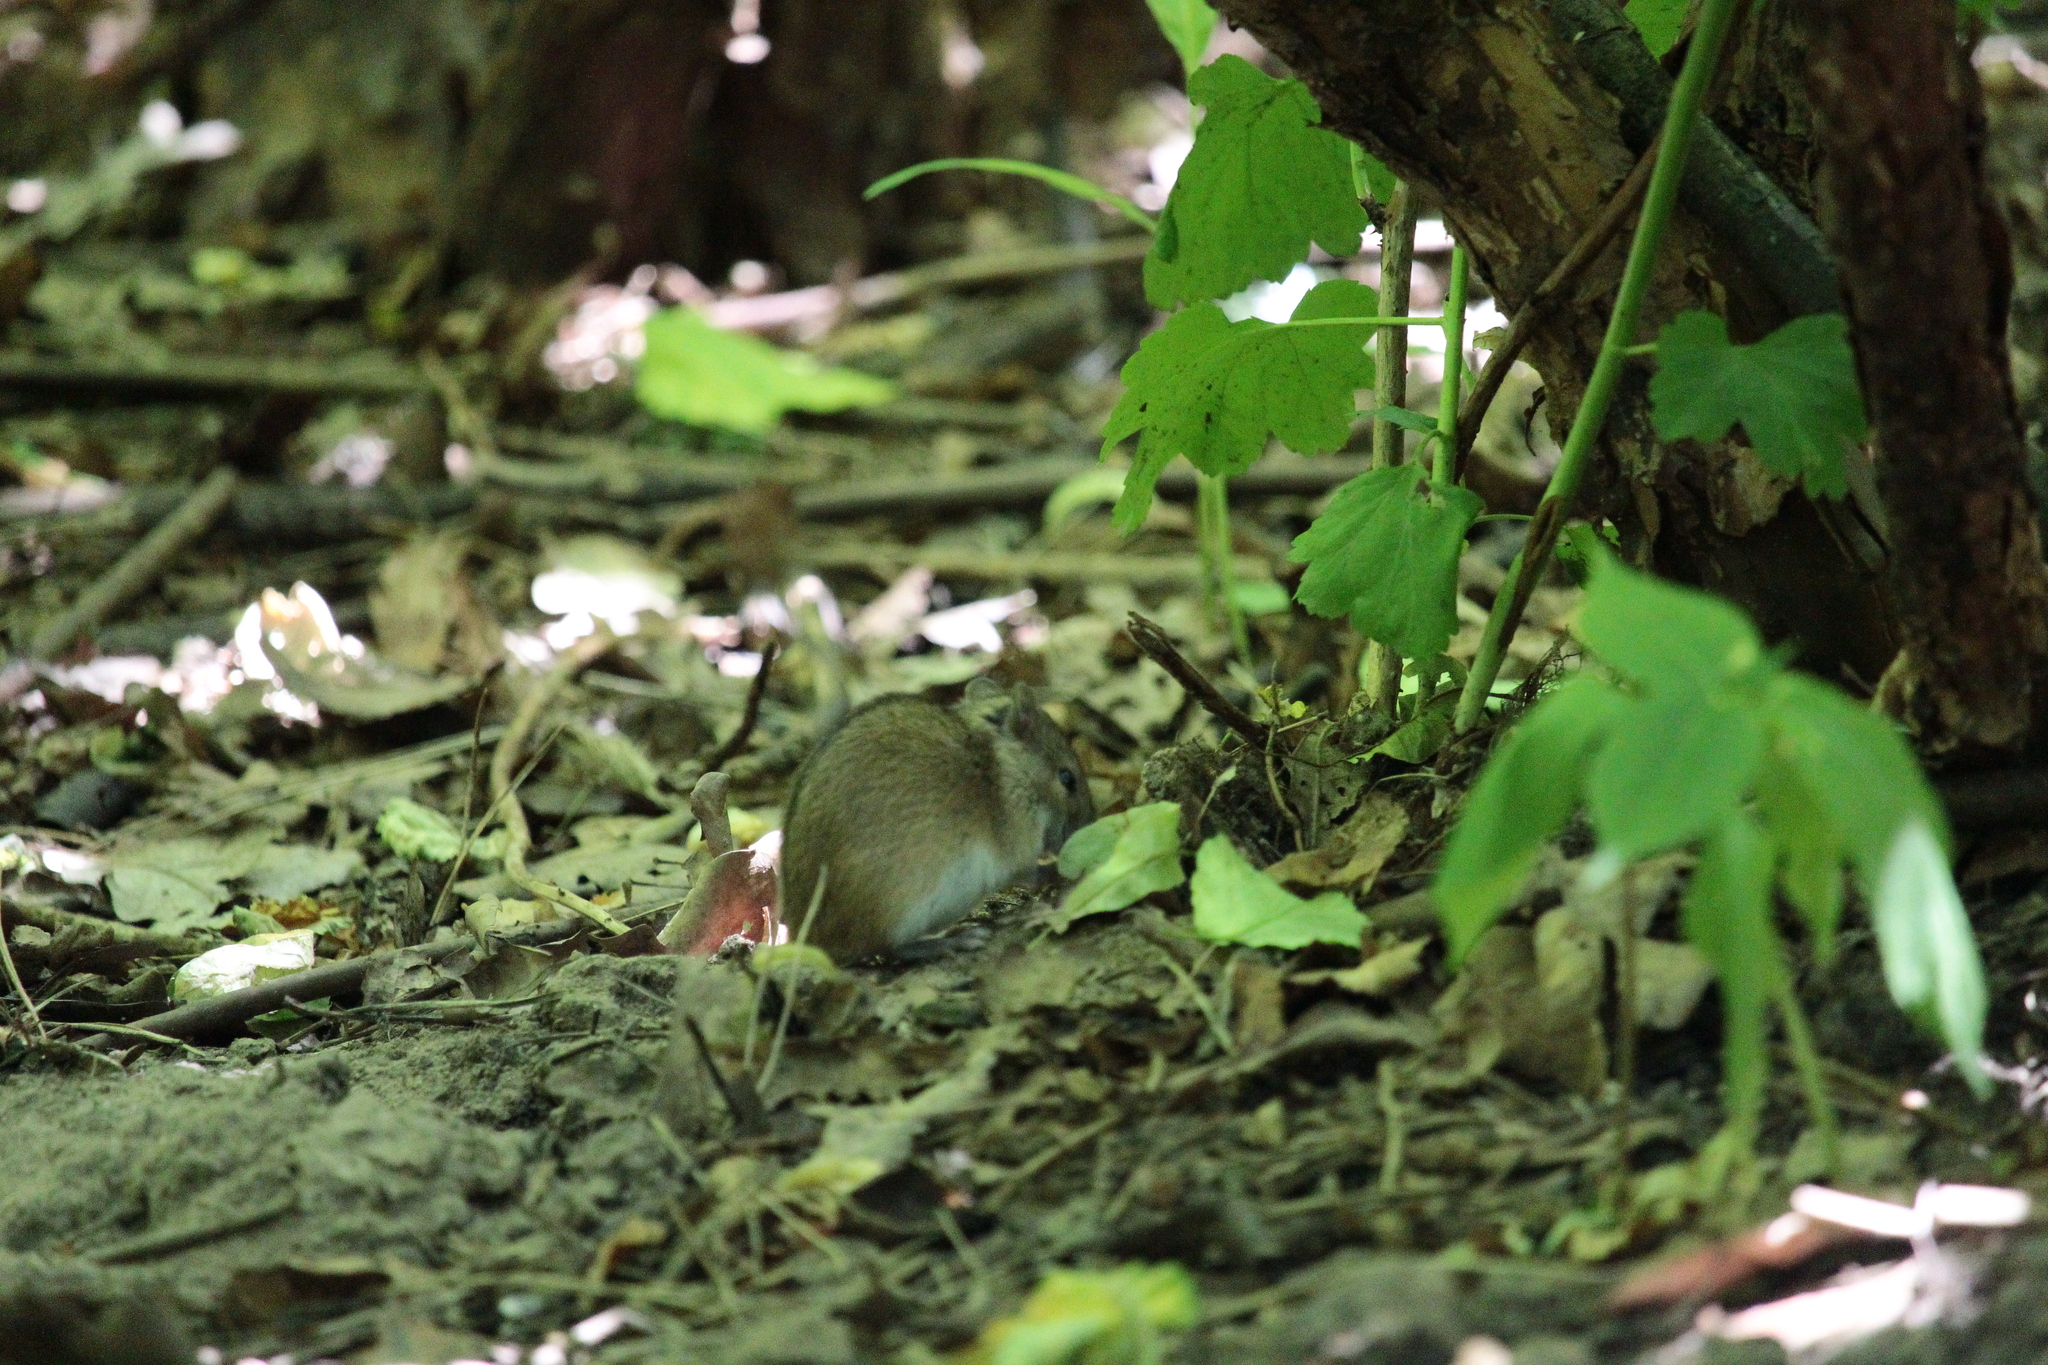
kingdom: Animalia
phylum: Chordata
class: Mammalia
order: Rodentia
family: Muridae
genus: Apodemus
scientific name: Apodemus agrarius
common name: Striped field mouse
